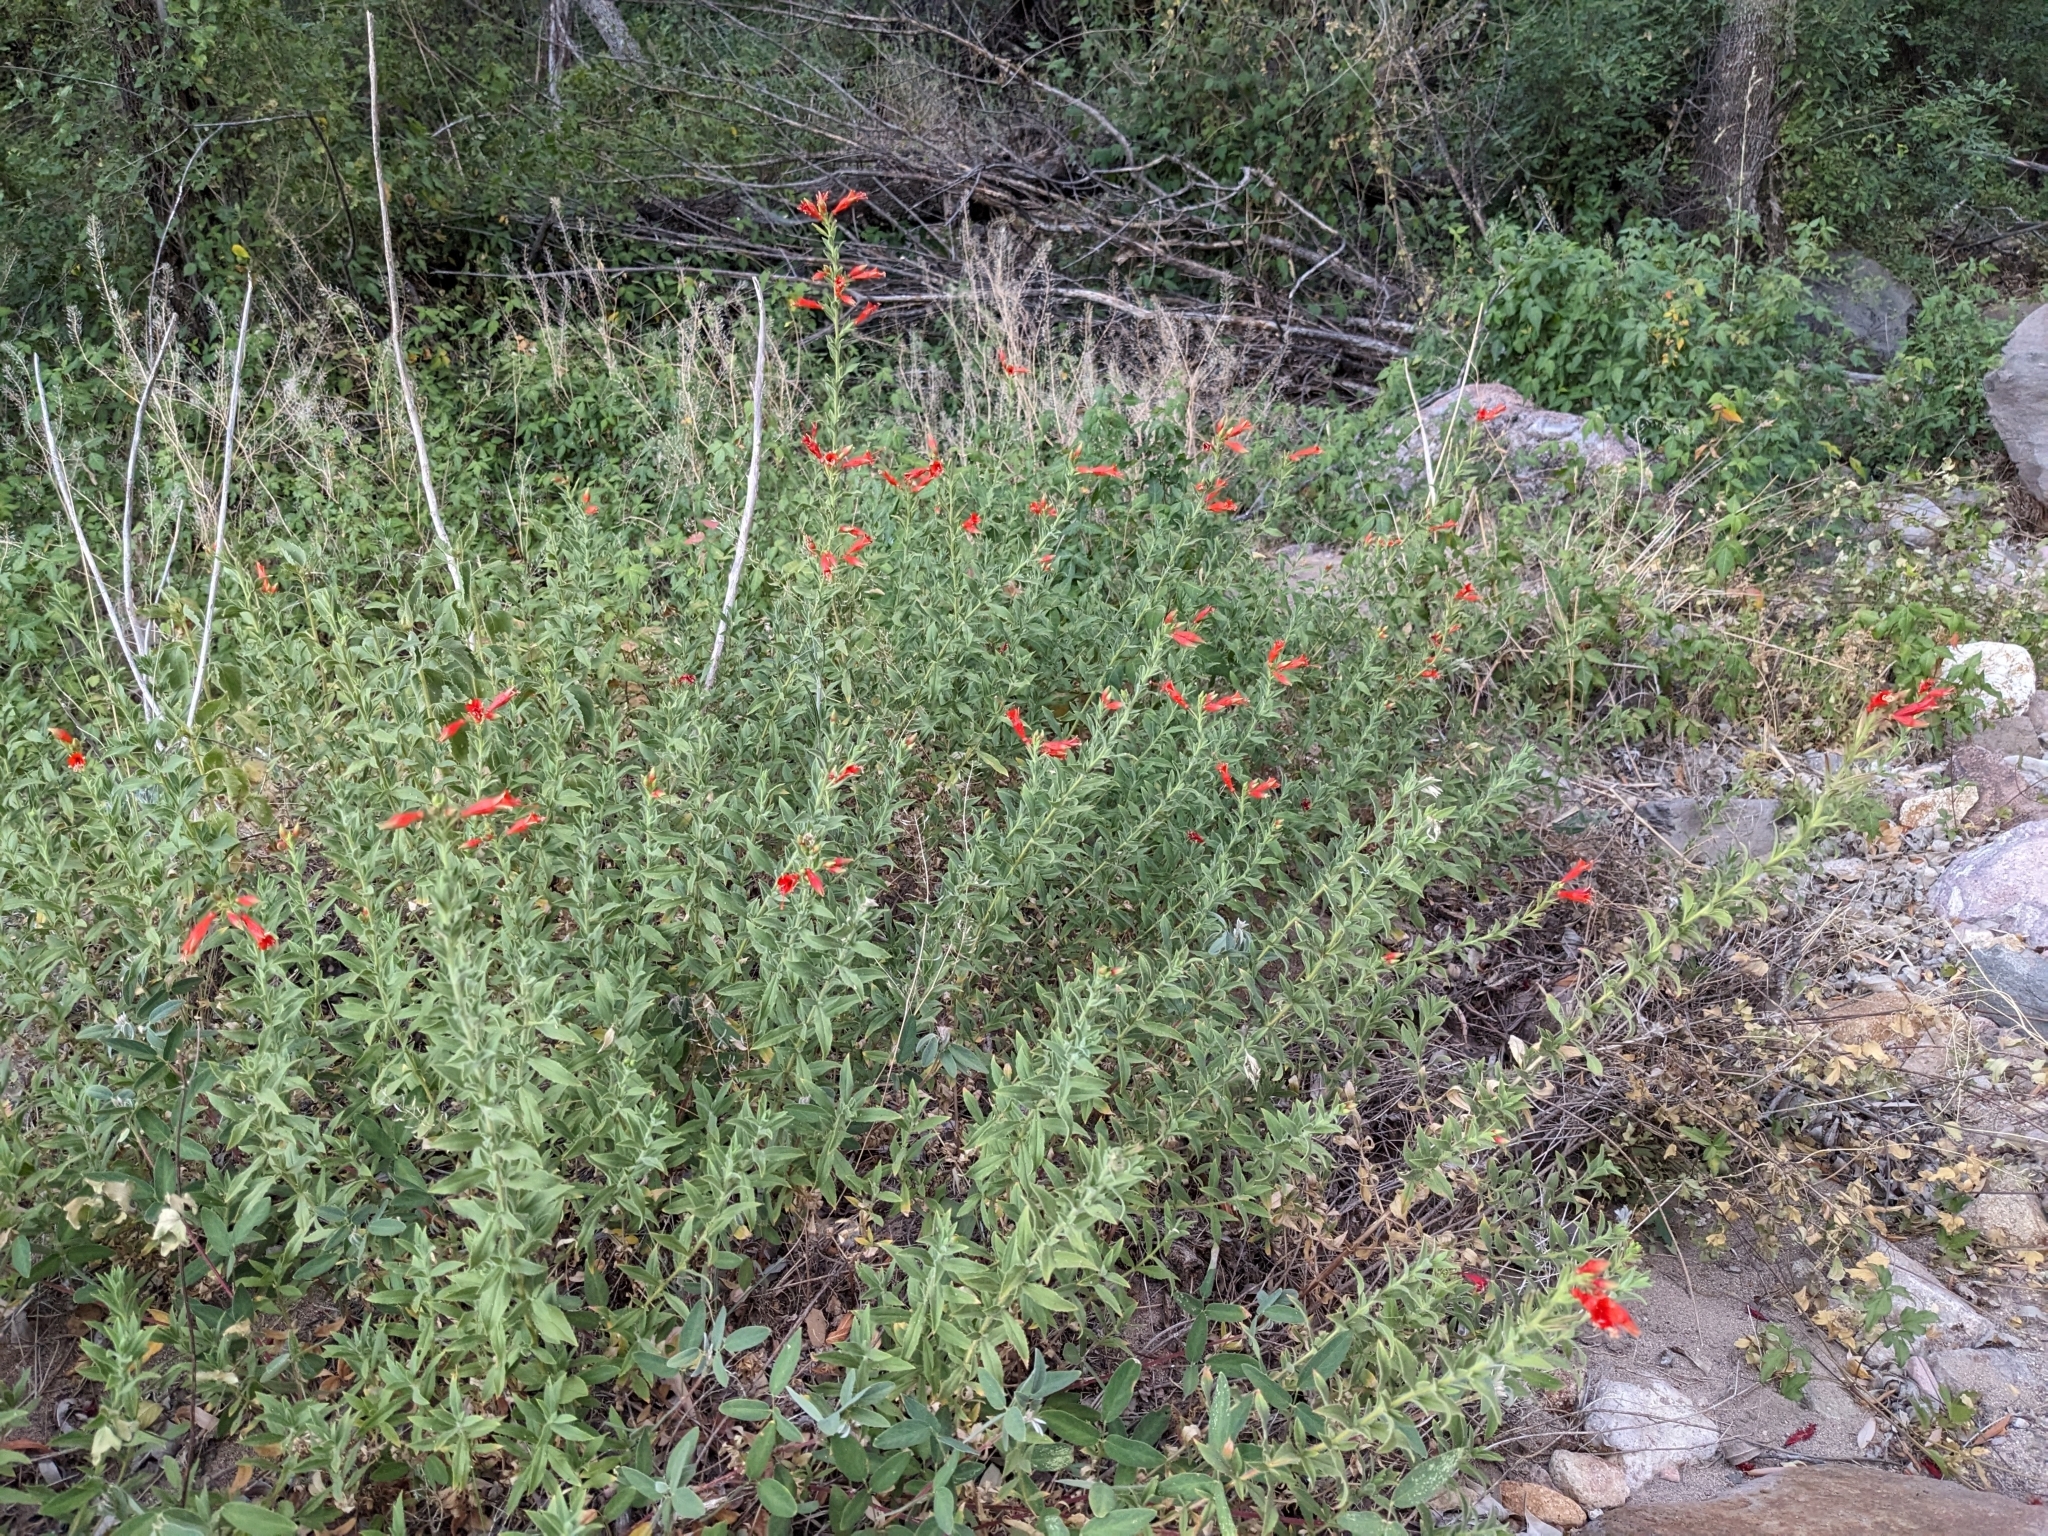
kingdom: Plantae
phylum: Tracheophyta
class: Magnoliopsida
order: Myrtales
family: Onagraceae
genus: Epilobium
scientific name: Epilobium canum
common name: California-fuchsia
